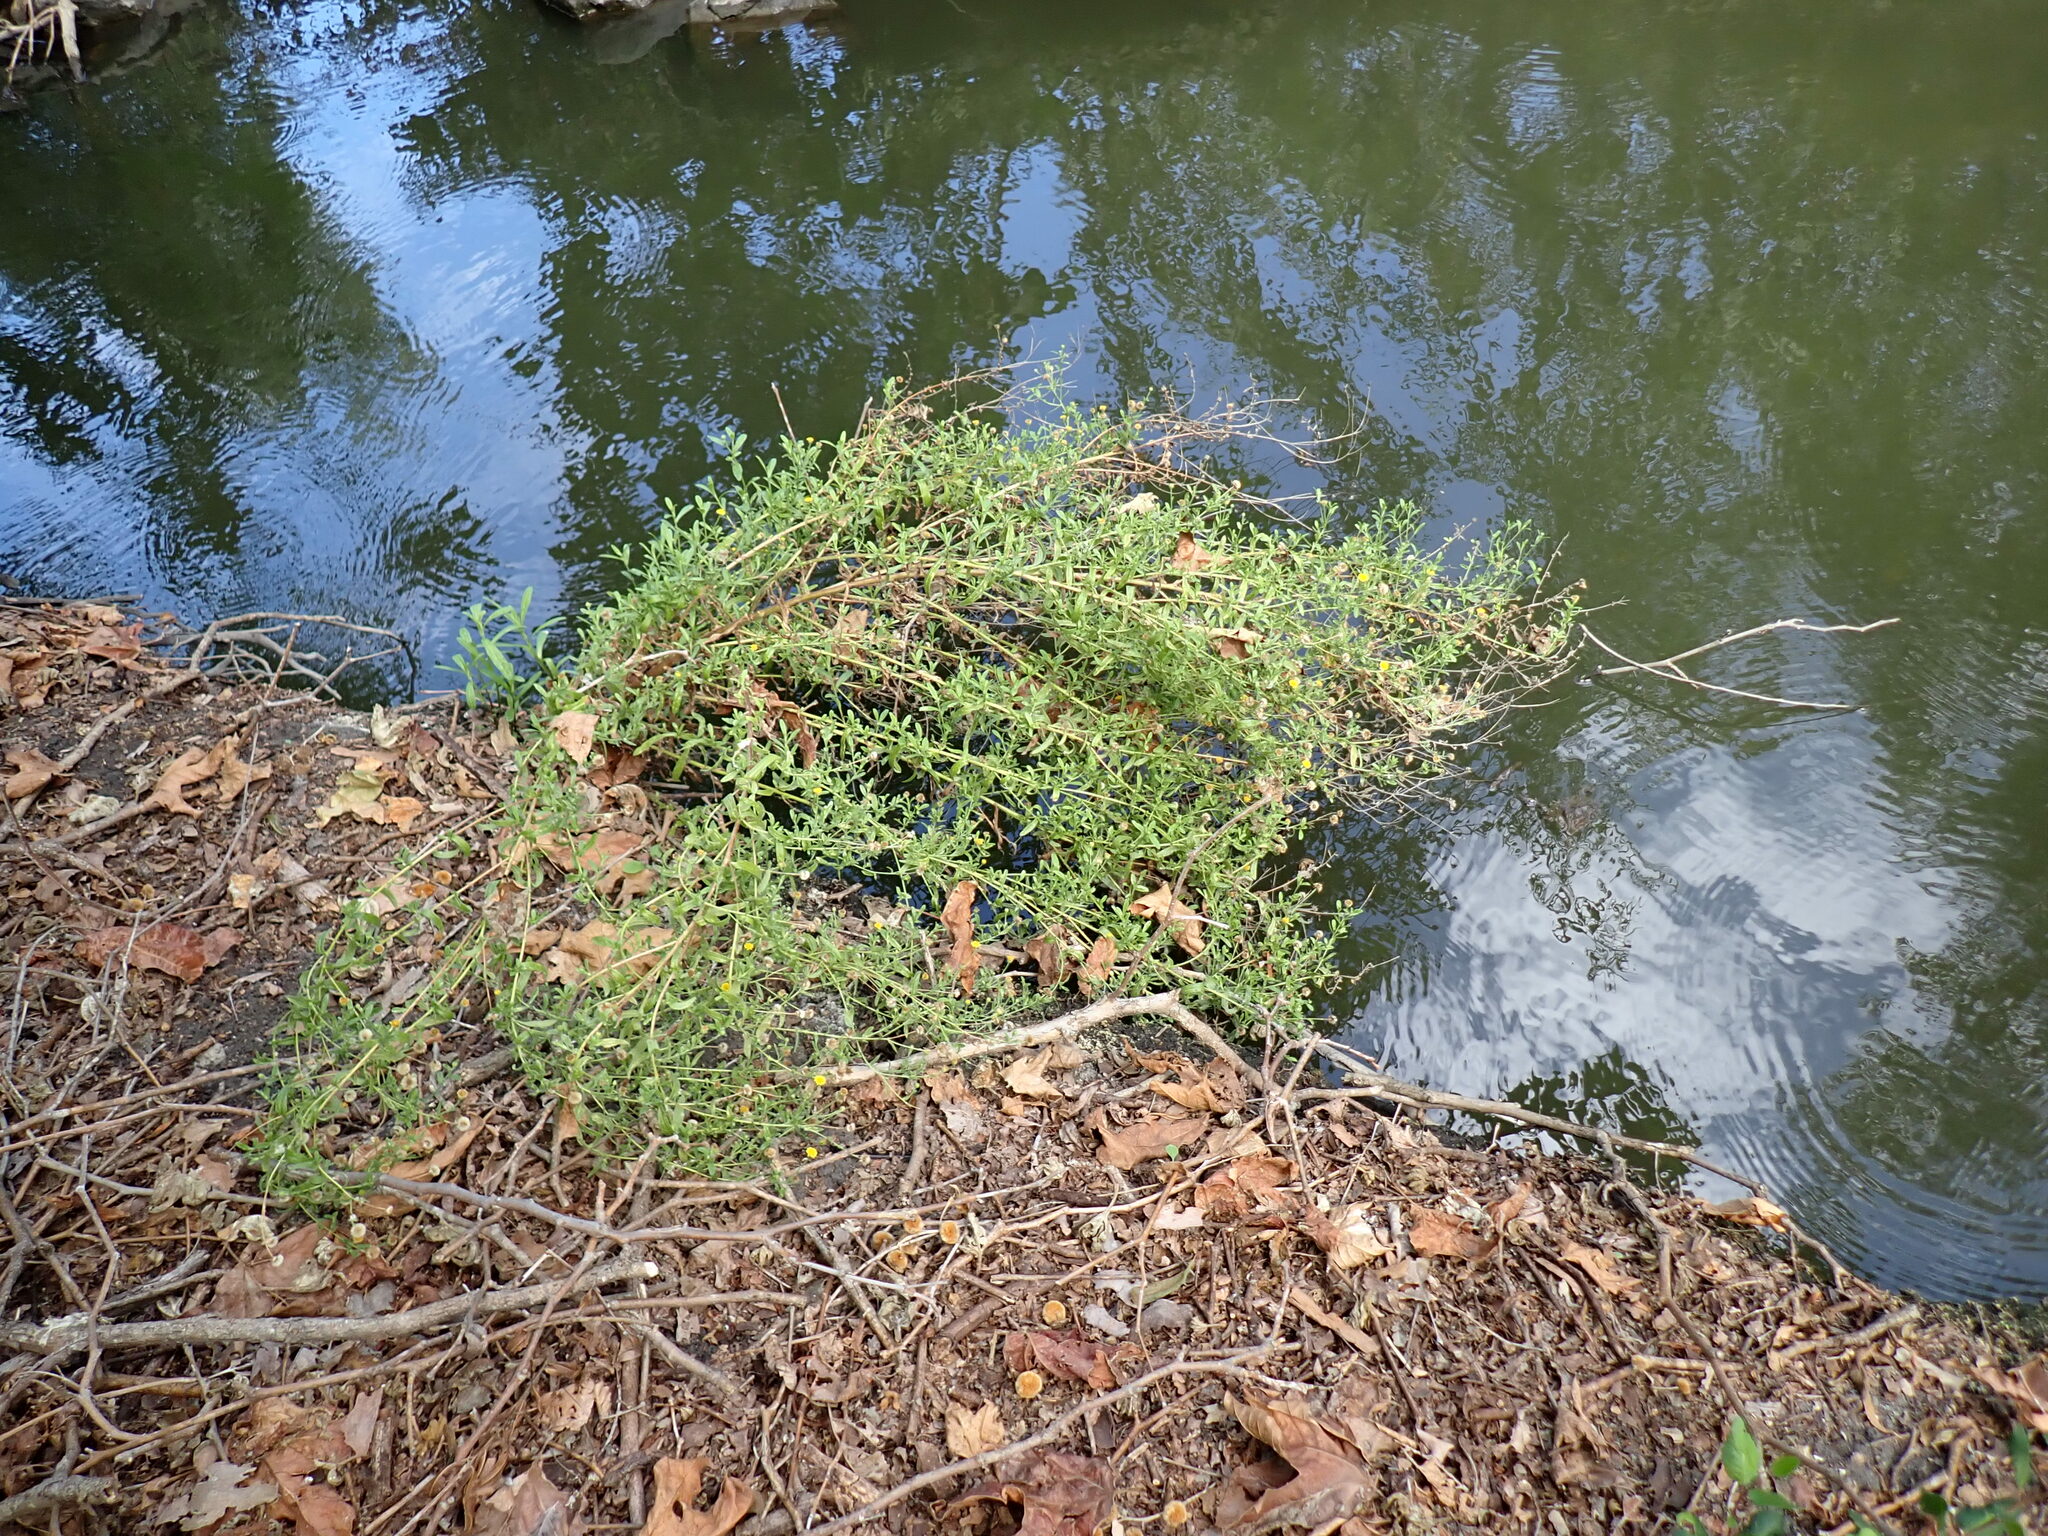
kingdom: Plantae
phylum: Tracheophyta
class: Magnoliopsida
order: Asterales
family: Asteraceae
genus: Pulicaria
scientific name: Pulicaria paludosa
